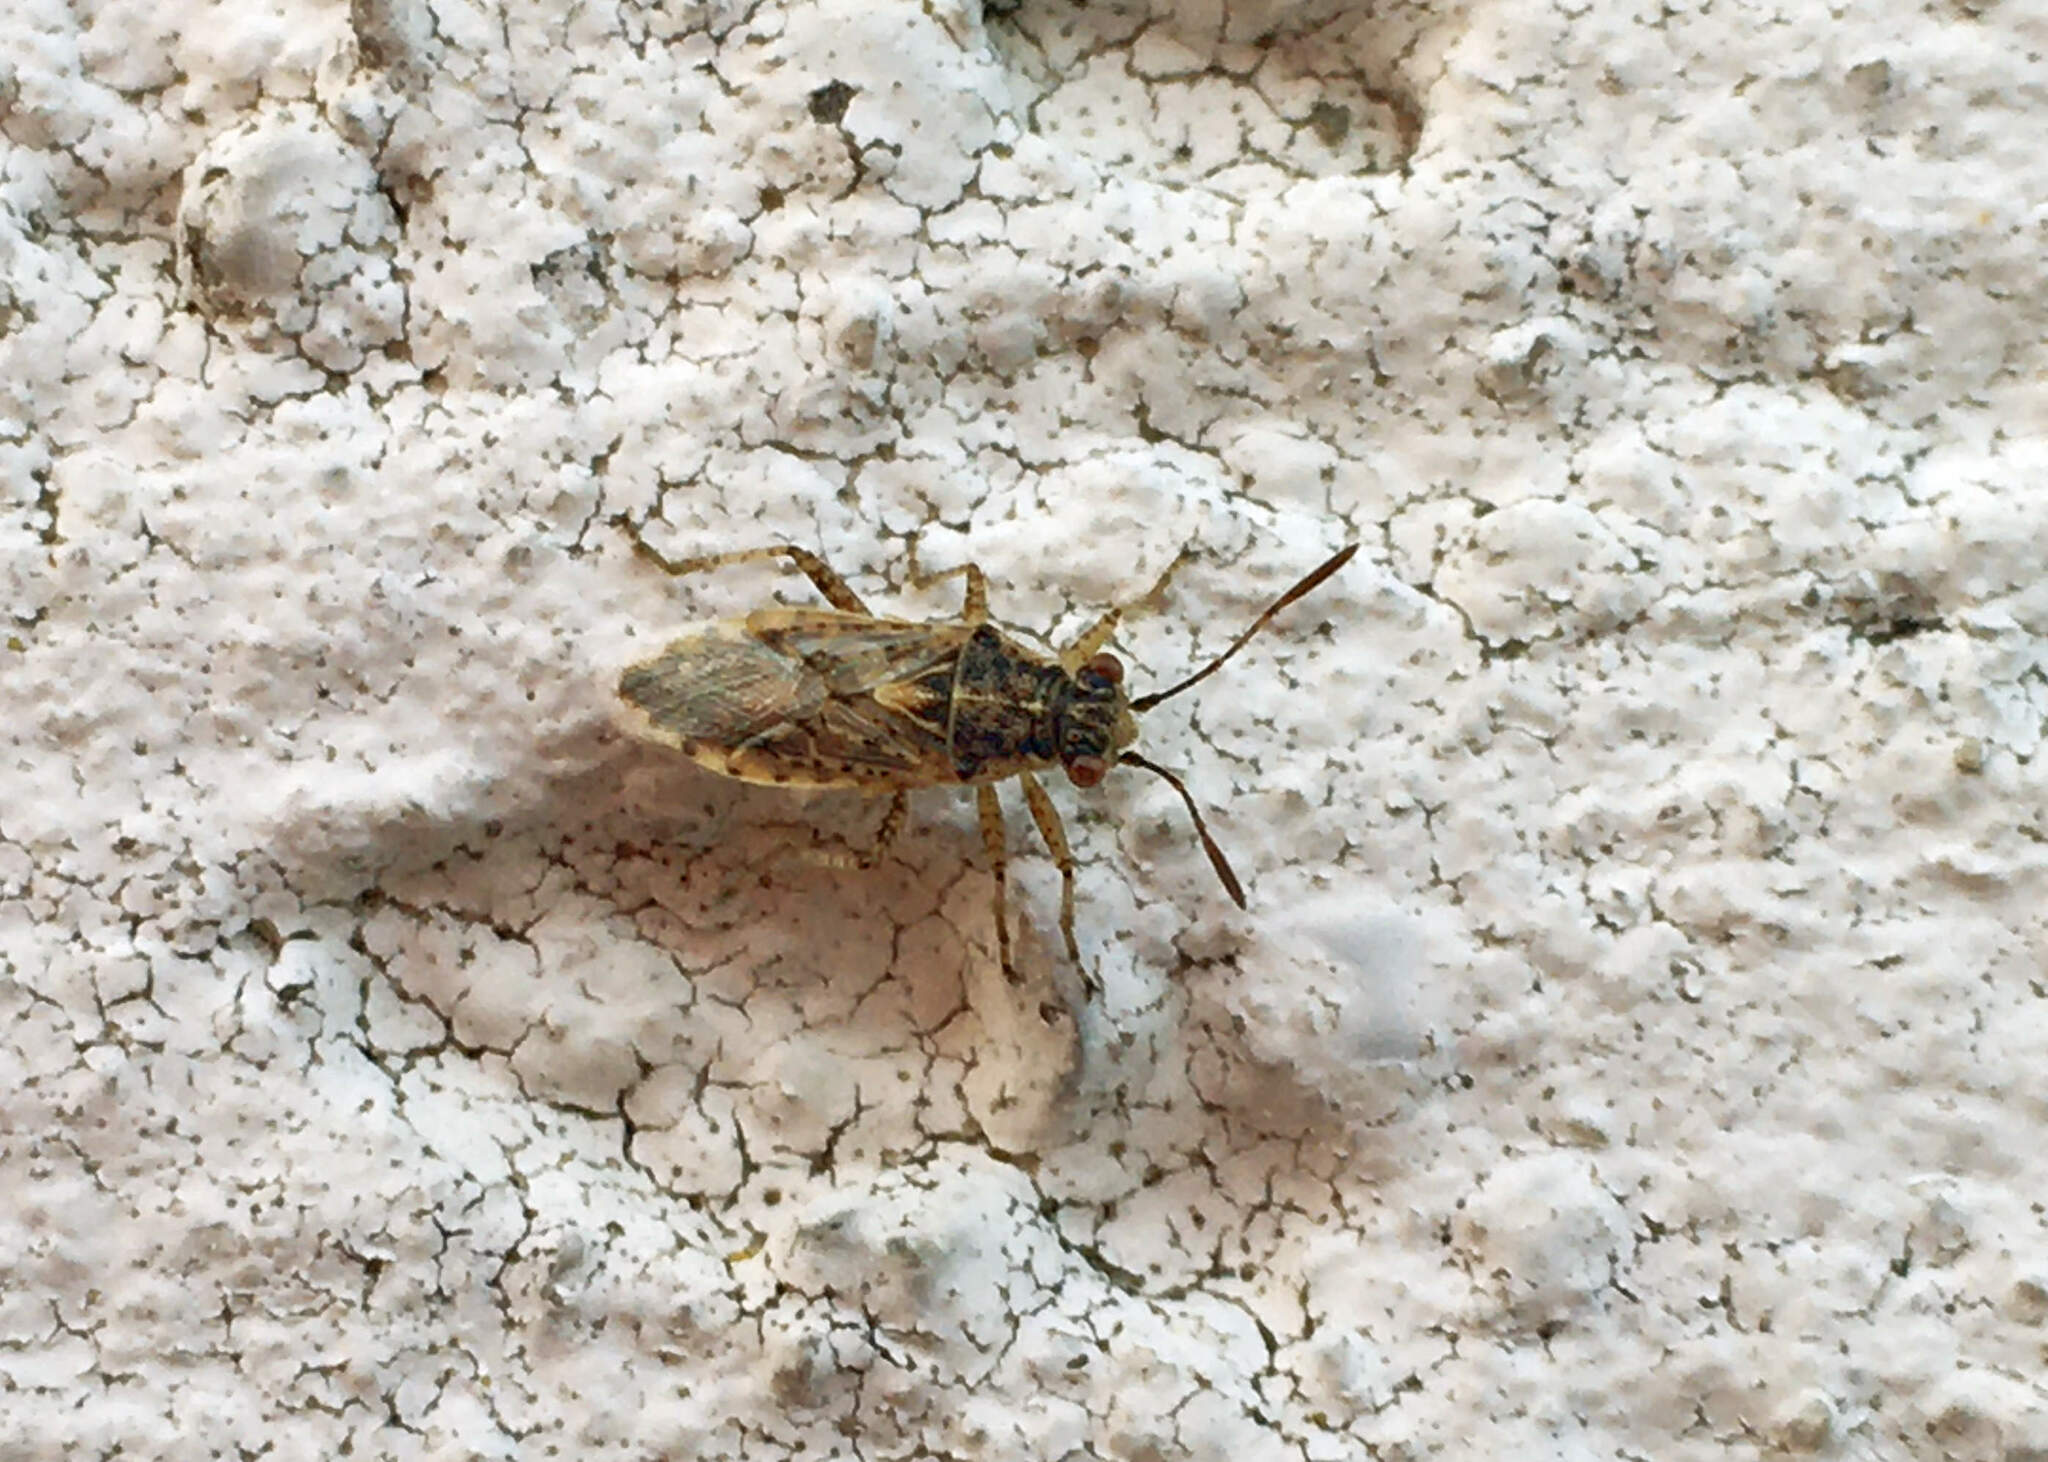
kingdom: Animalia
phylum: Arthropoda
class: Insecta
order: Hemiptera
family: Rhopalidae
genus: Brachycarenus
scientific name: Brachycarenus tigrinus
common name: Scentless plant bug
